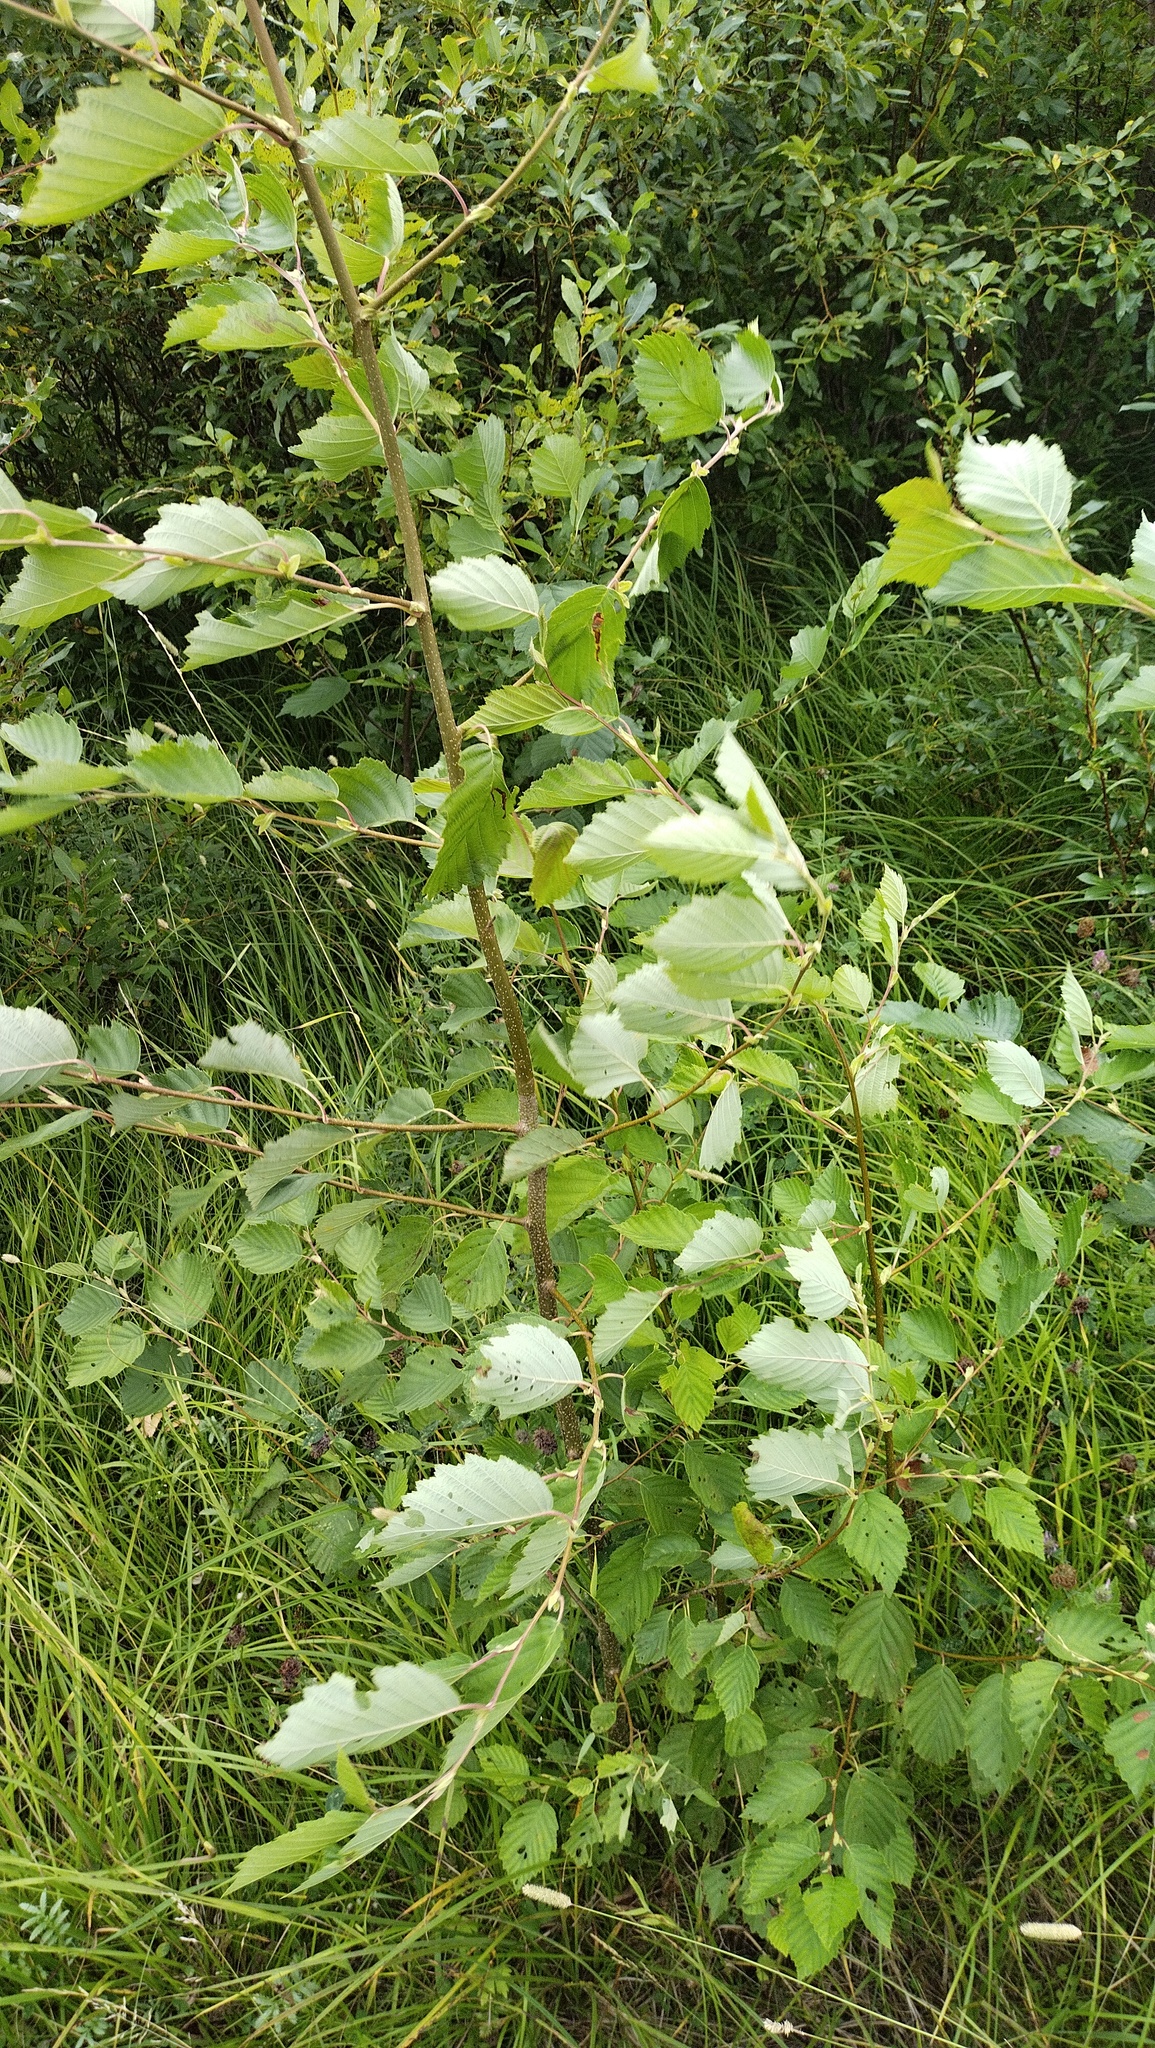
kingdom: Plantae
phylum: Tracheophyta
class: Magnoliopsida
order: Fagales
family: Betulaceae
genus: Alnus
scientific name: Alnus incana
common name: Grey alder
